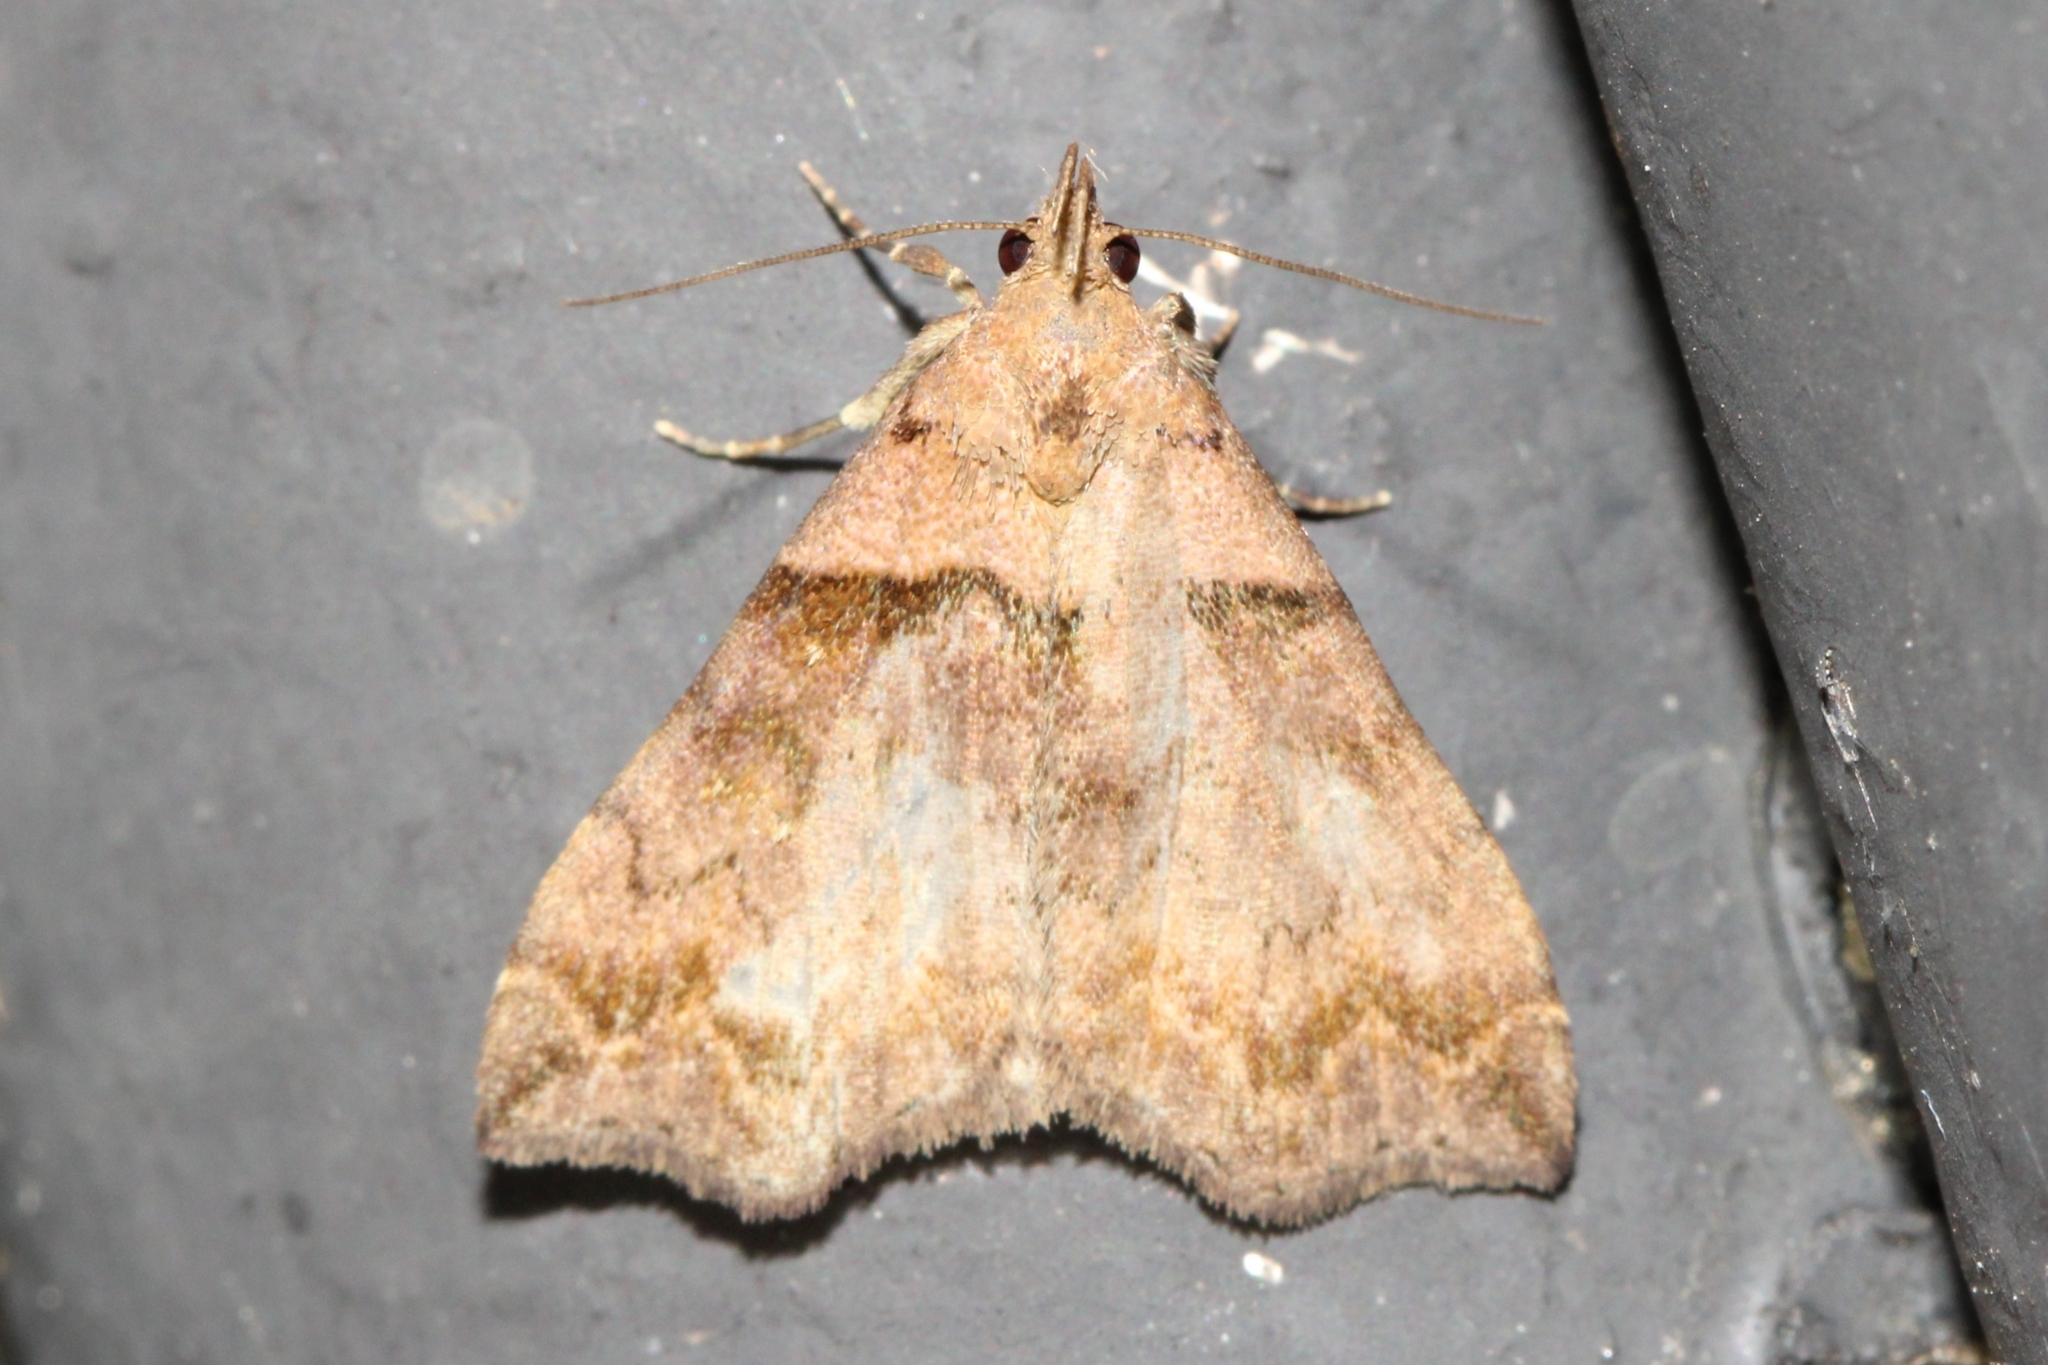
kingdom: Animalia
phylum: Arthropoda
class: Insecta
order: Lepidoptera
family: Erebidae
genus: Lascoria
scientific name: Lascoria ambigualis
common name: Ambiguous moth
